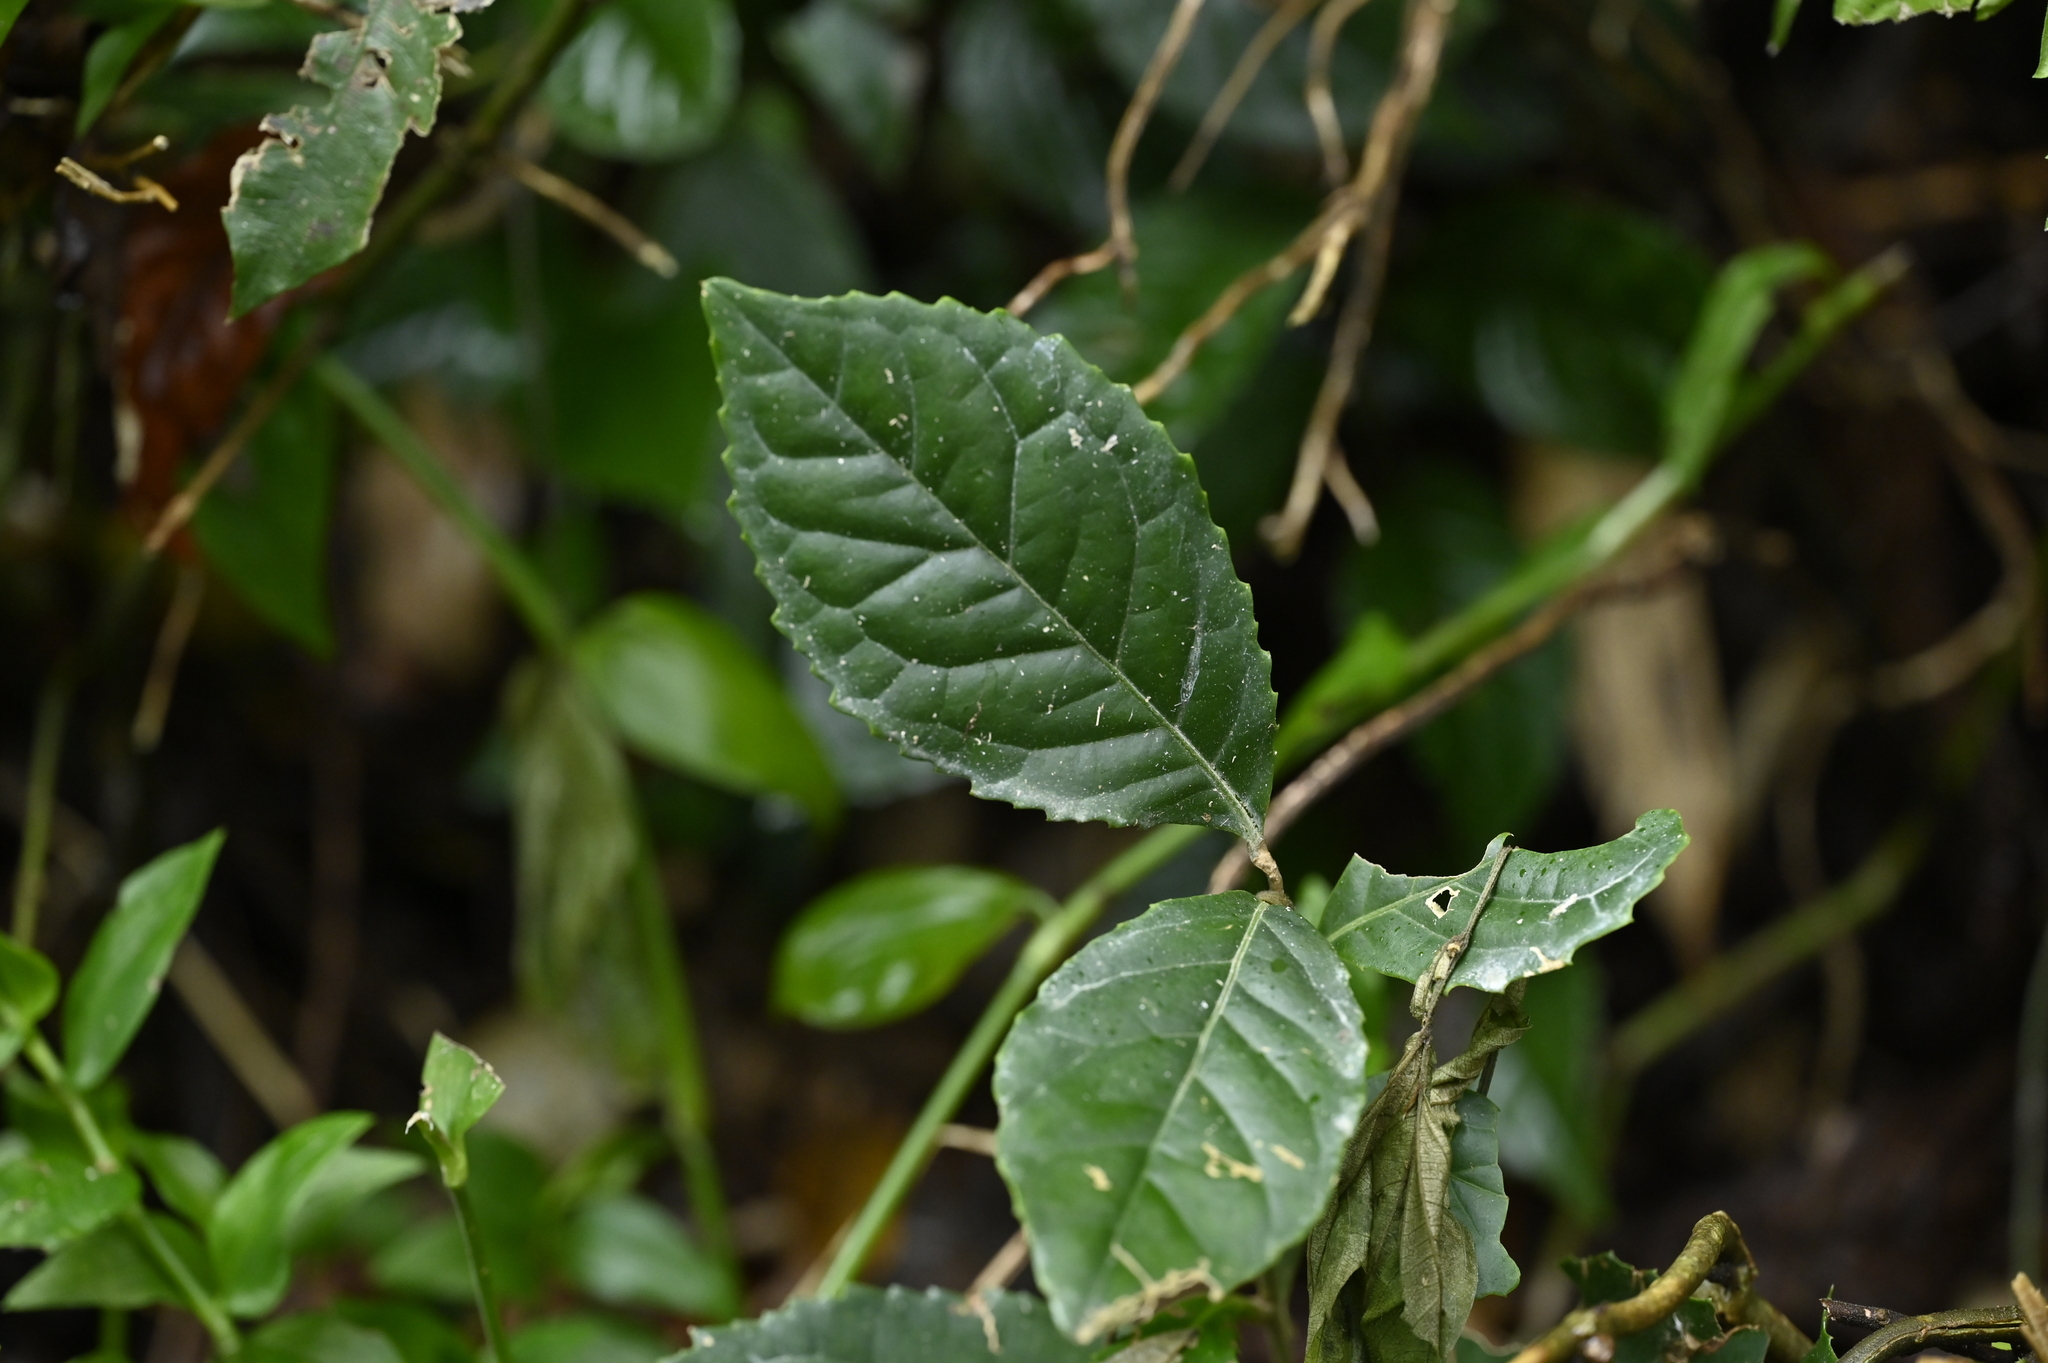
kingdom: Plantae
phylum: Tracheophyta
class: Magnoliopsida
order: Proteales
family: Proteaceae
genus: Helicia
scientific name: Helicia formosana
